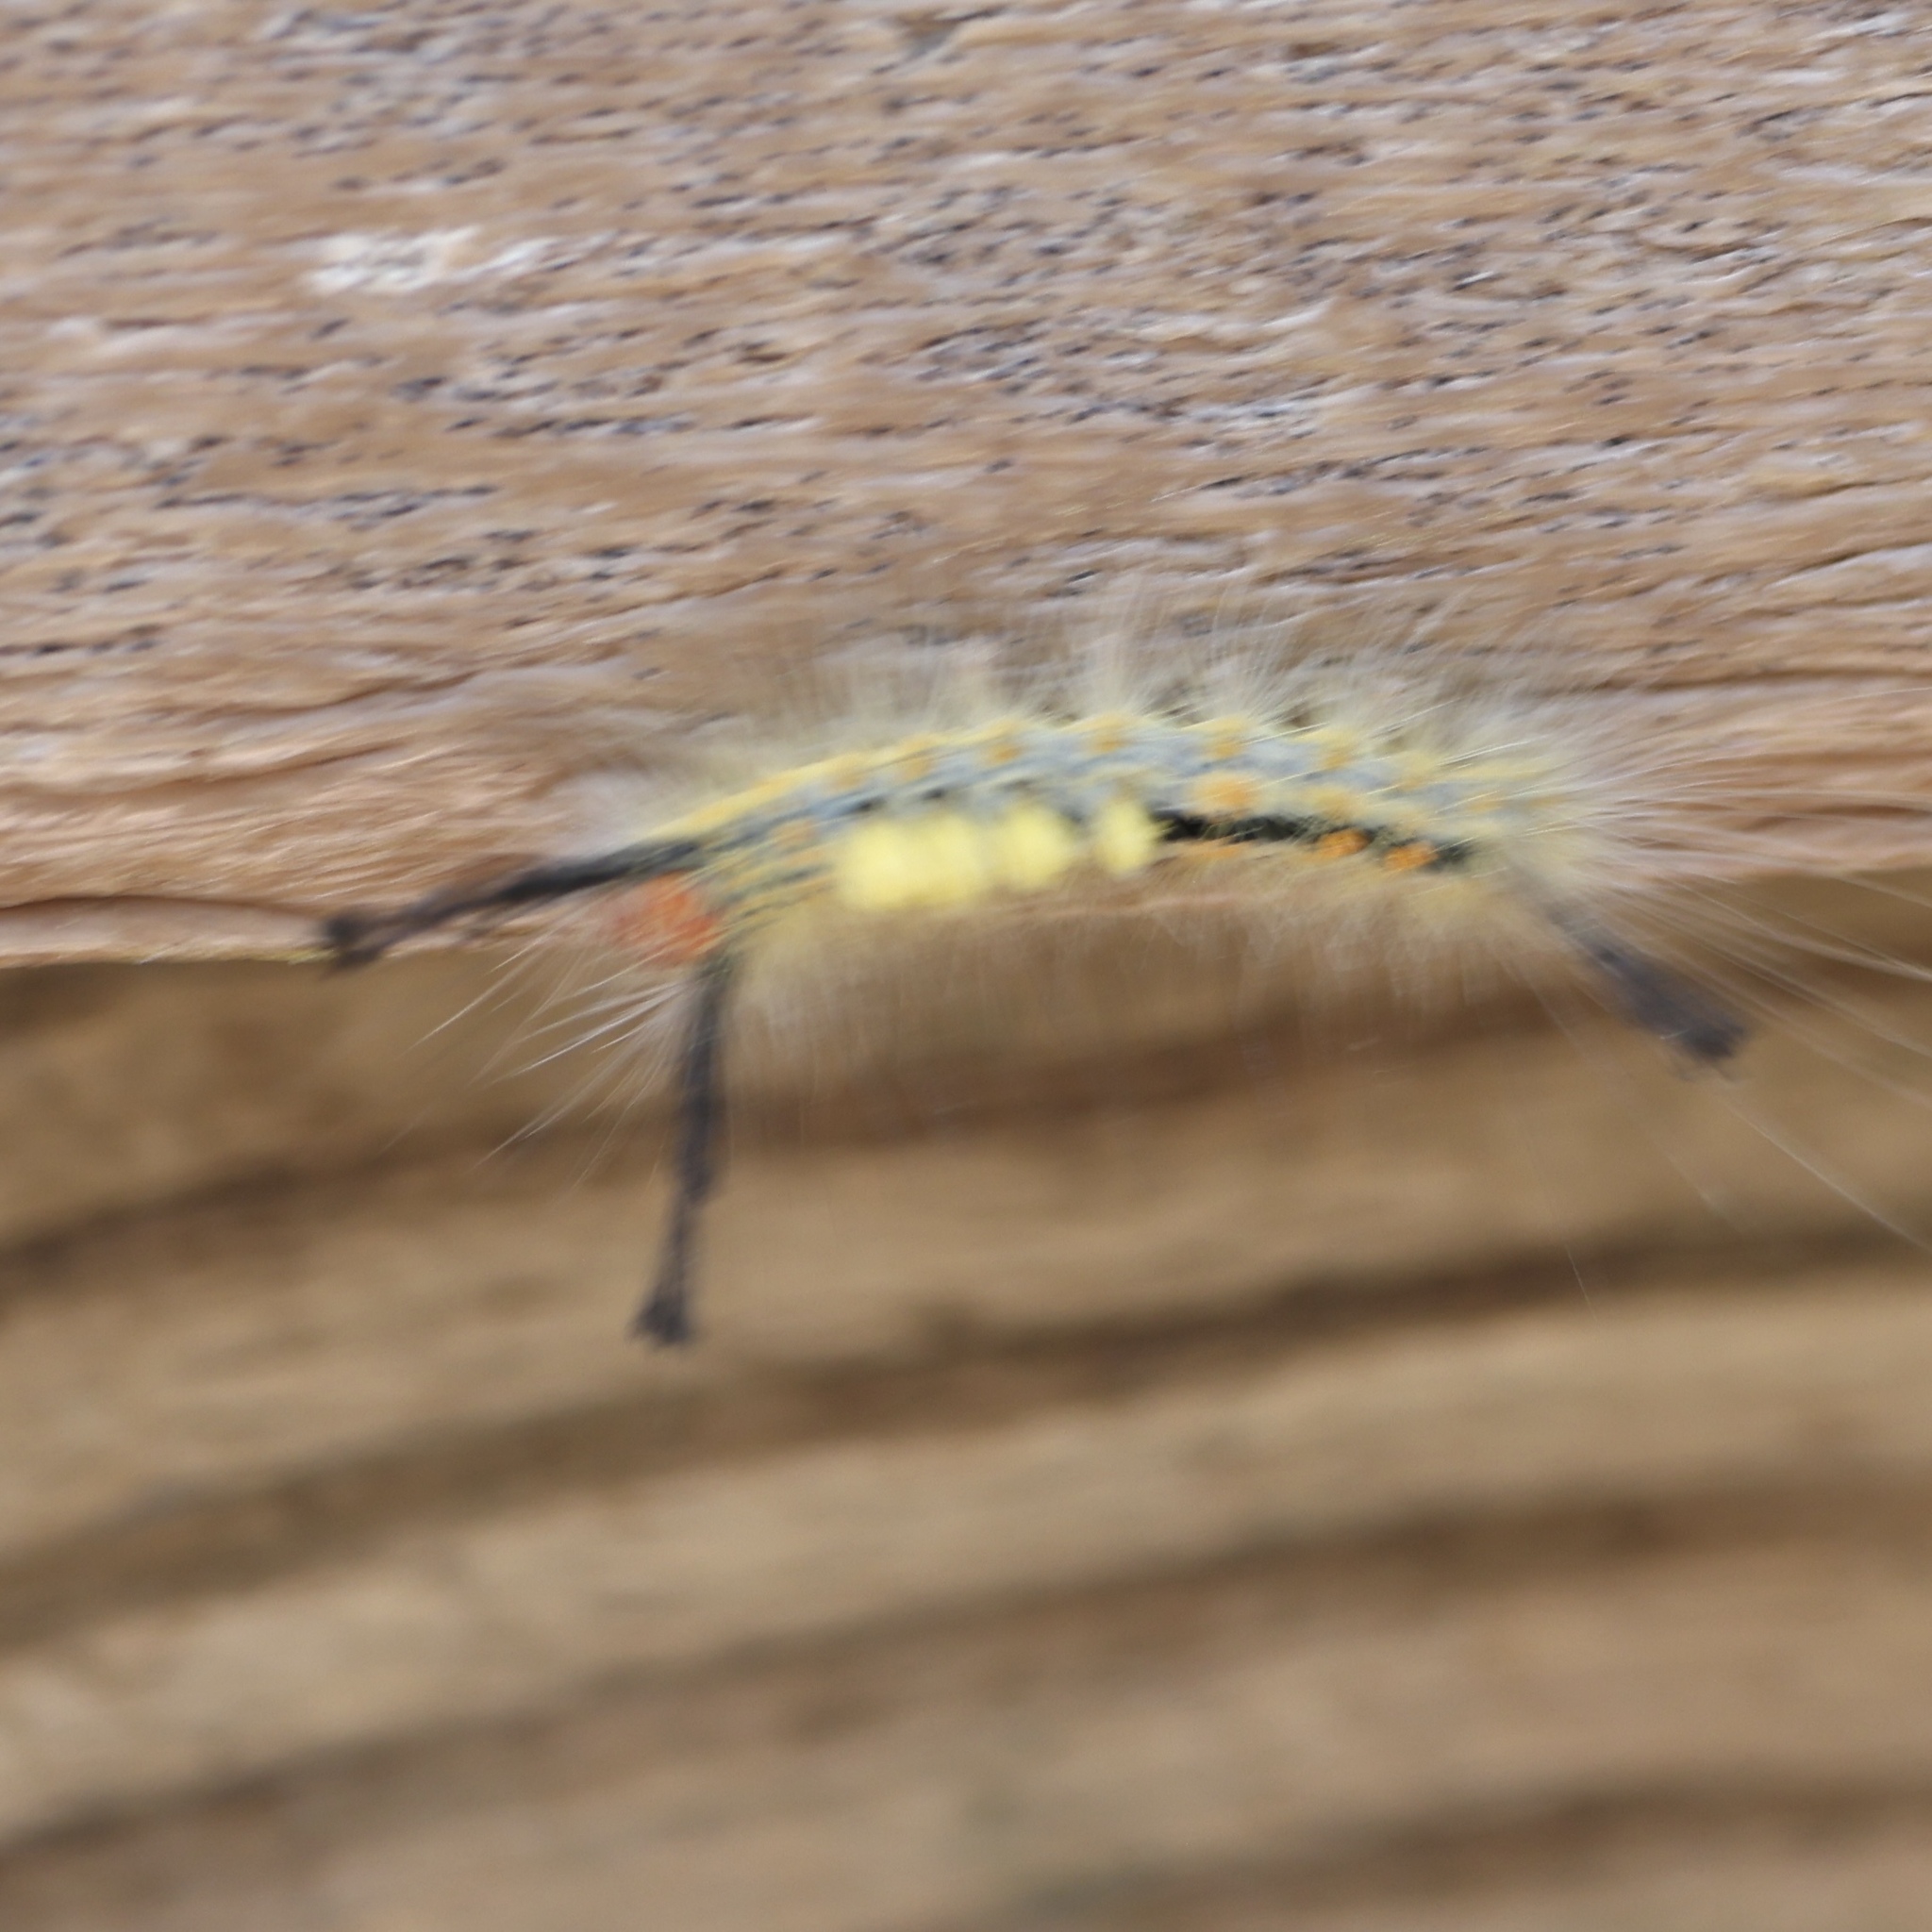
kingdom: Animalia
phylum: Arthropoda
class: Insecta
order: Lepidoptera
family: Erebidae
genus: Orgyia
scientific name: Orgyia detrita
